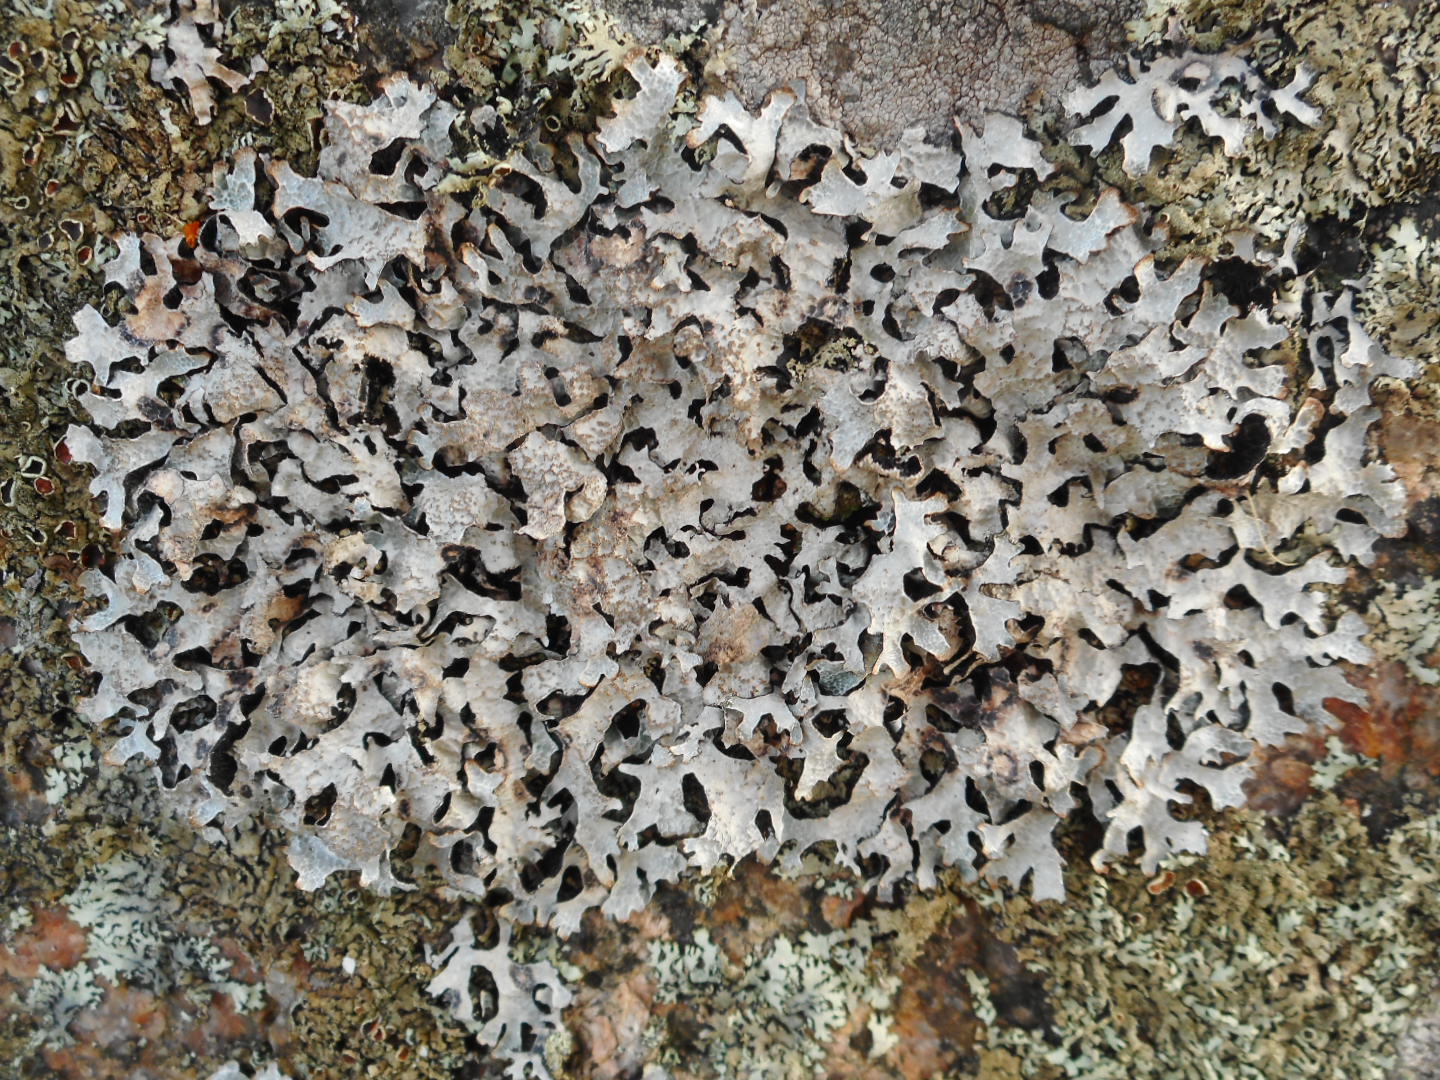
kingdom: Fungi
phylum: Ascomycota
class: Lecanoromycetes
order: Lecanorales
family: Parmeliaceae
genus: Parmelia
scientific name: Parmelia sulcata
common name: Netted shield lichen
